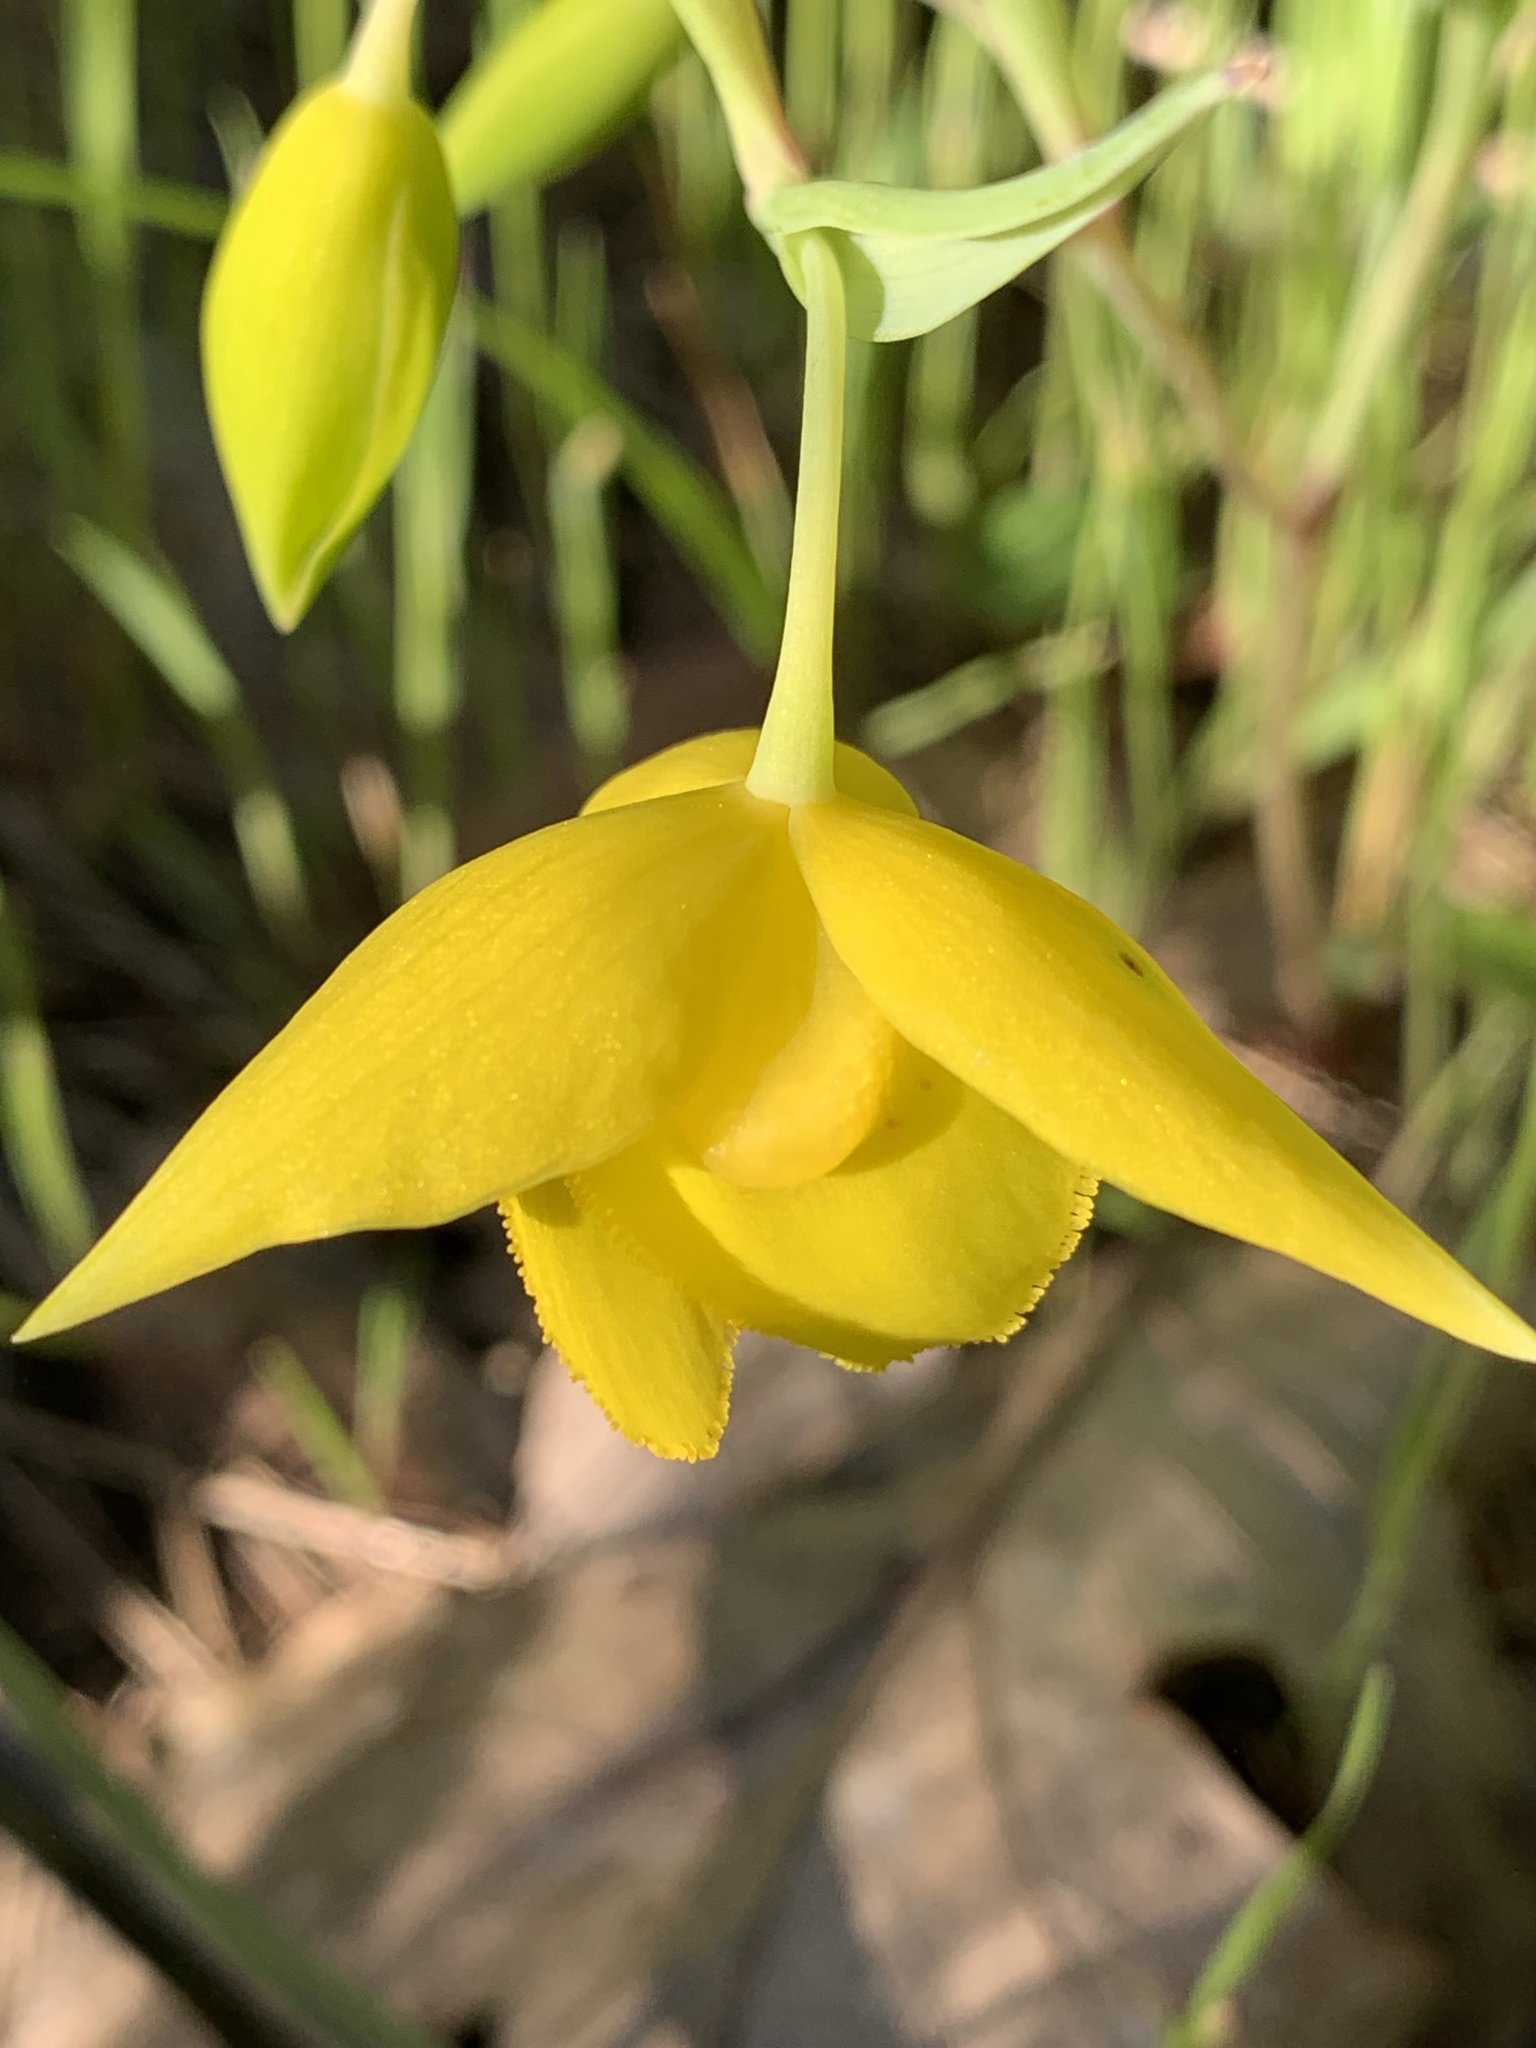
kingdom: Plantae
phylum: Tracheophyta
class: Liliopsida
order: Liliales
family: Liliaceae
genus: Calochortus
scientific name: Calochortus amabilis
